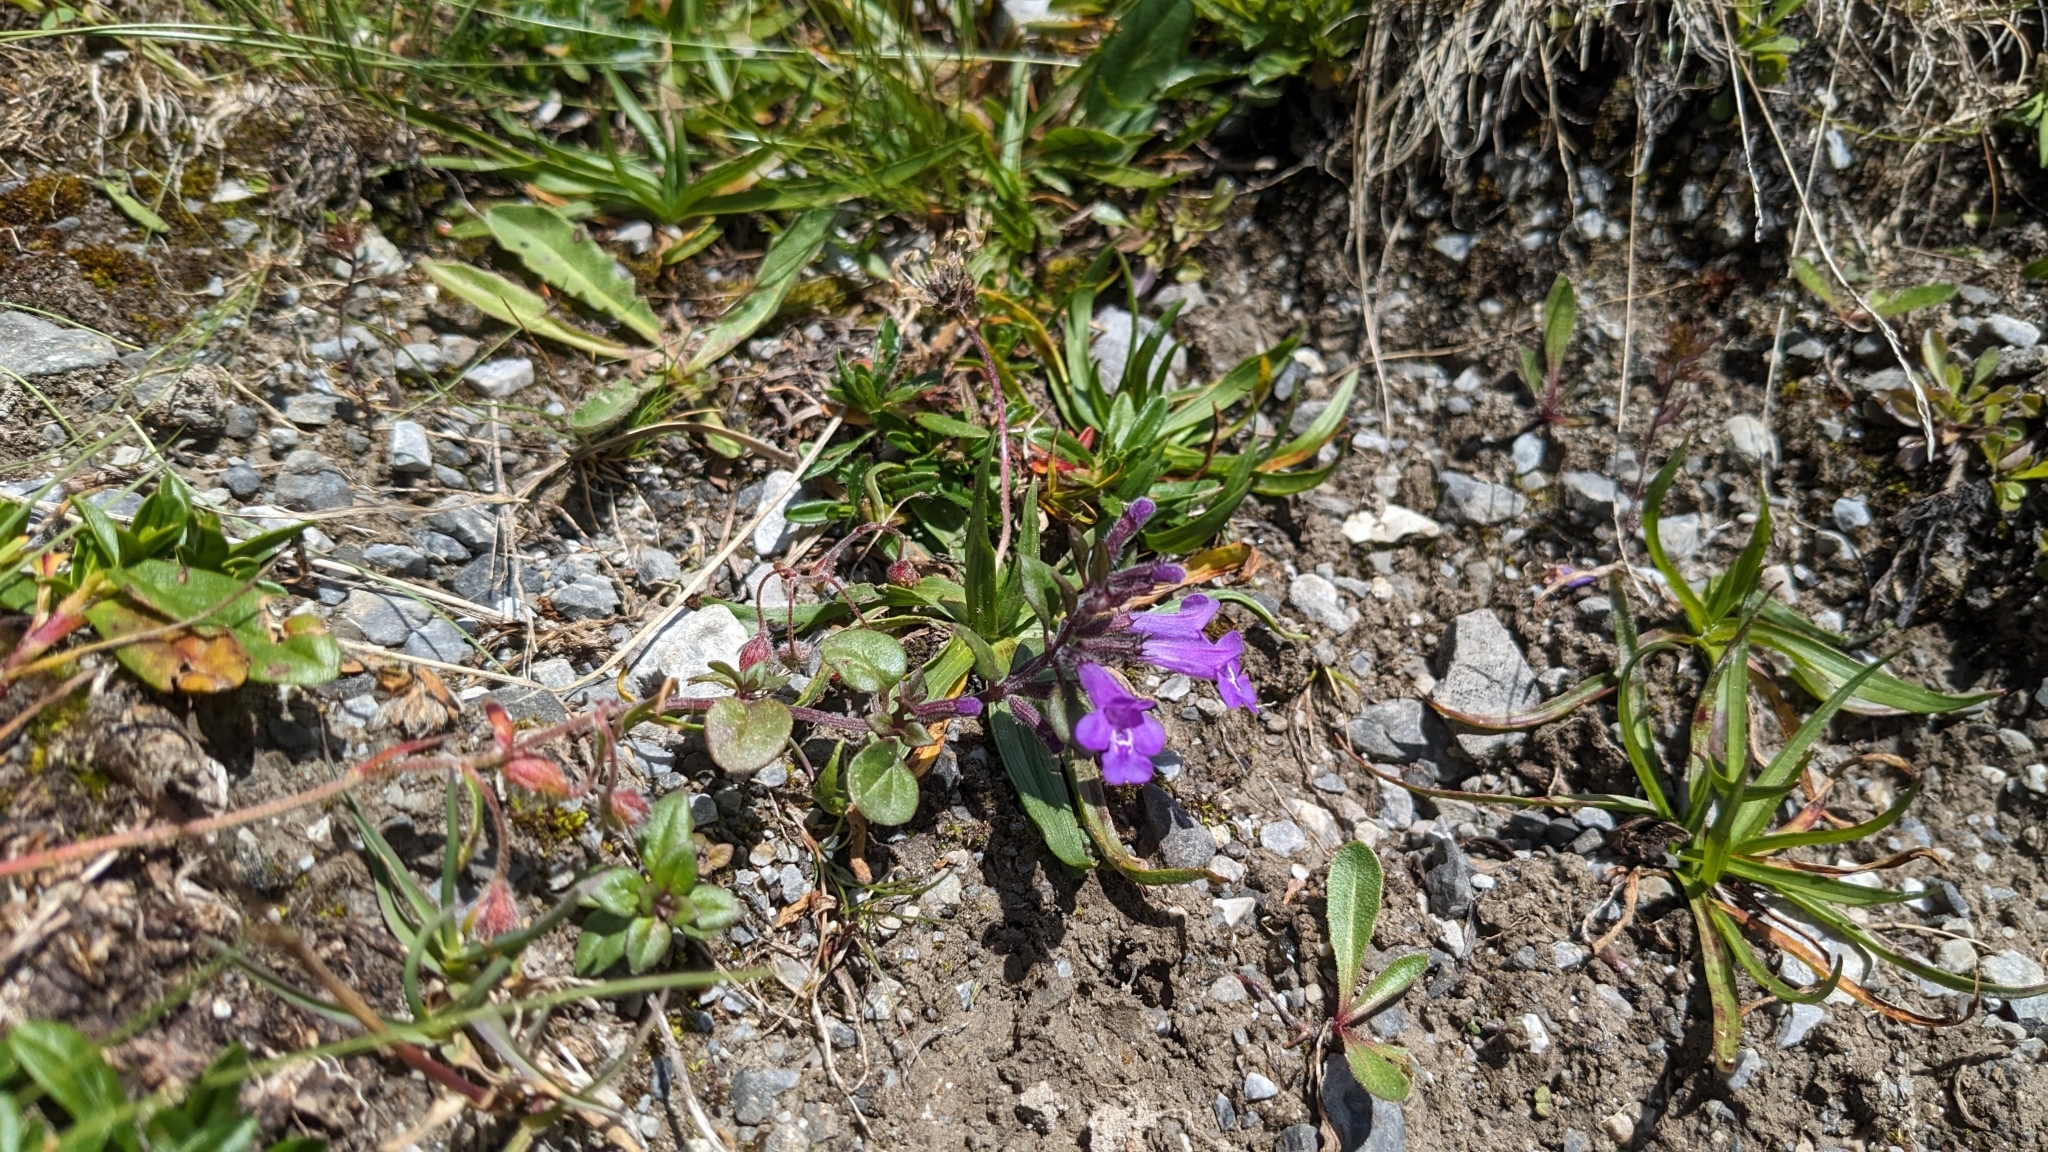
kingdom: Plantae
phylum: Tracheophyta
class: Magnoliopsida
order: Lamiales
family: Lamiaceae
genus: Clinopodium
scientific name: Clinopodium alpinum
